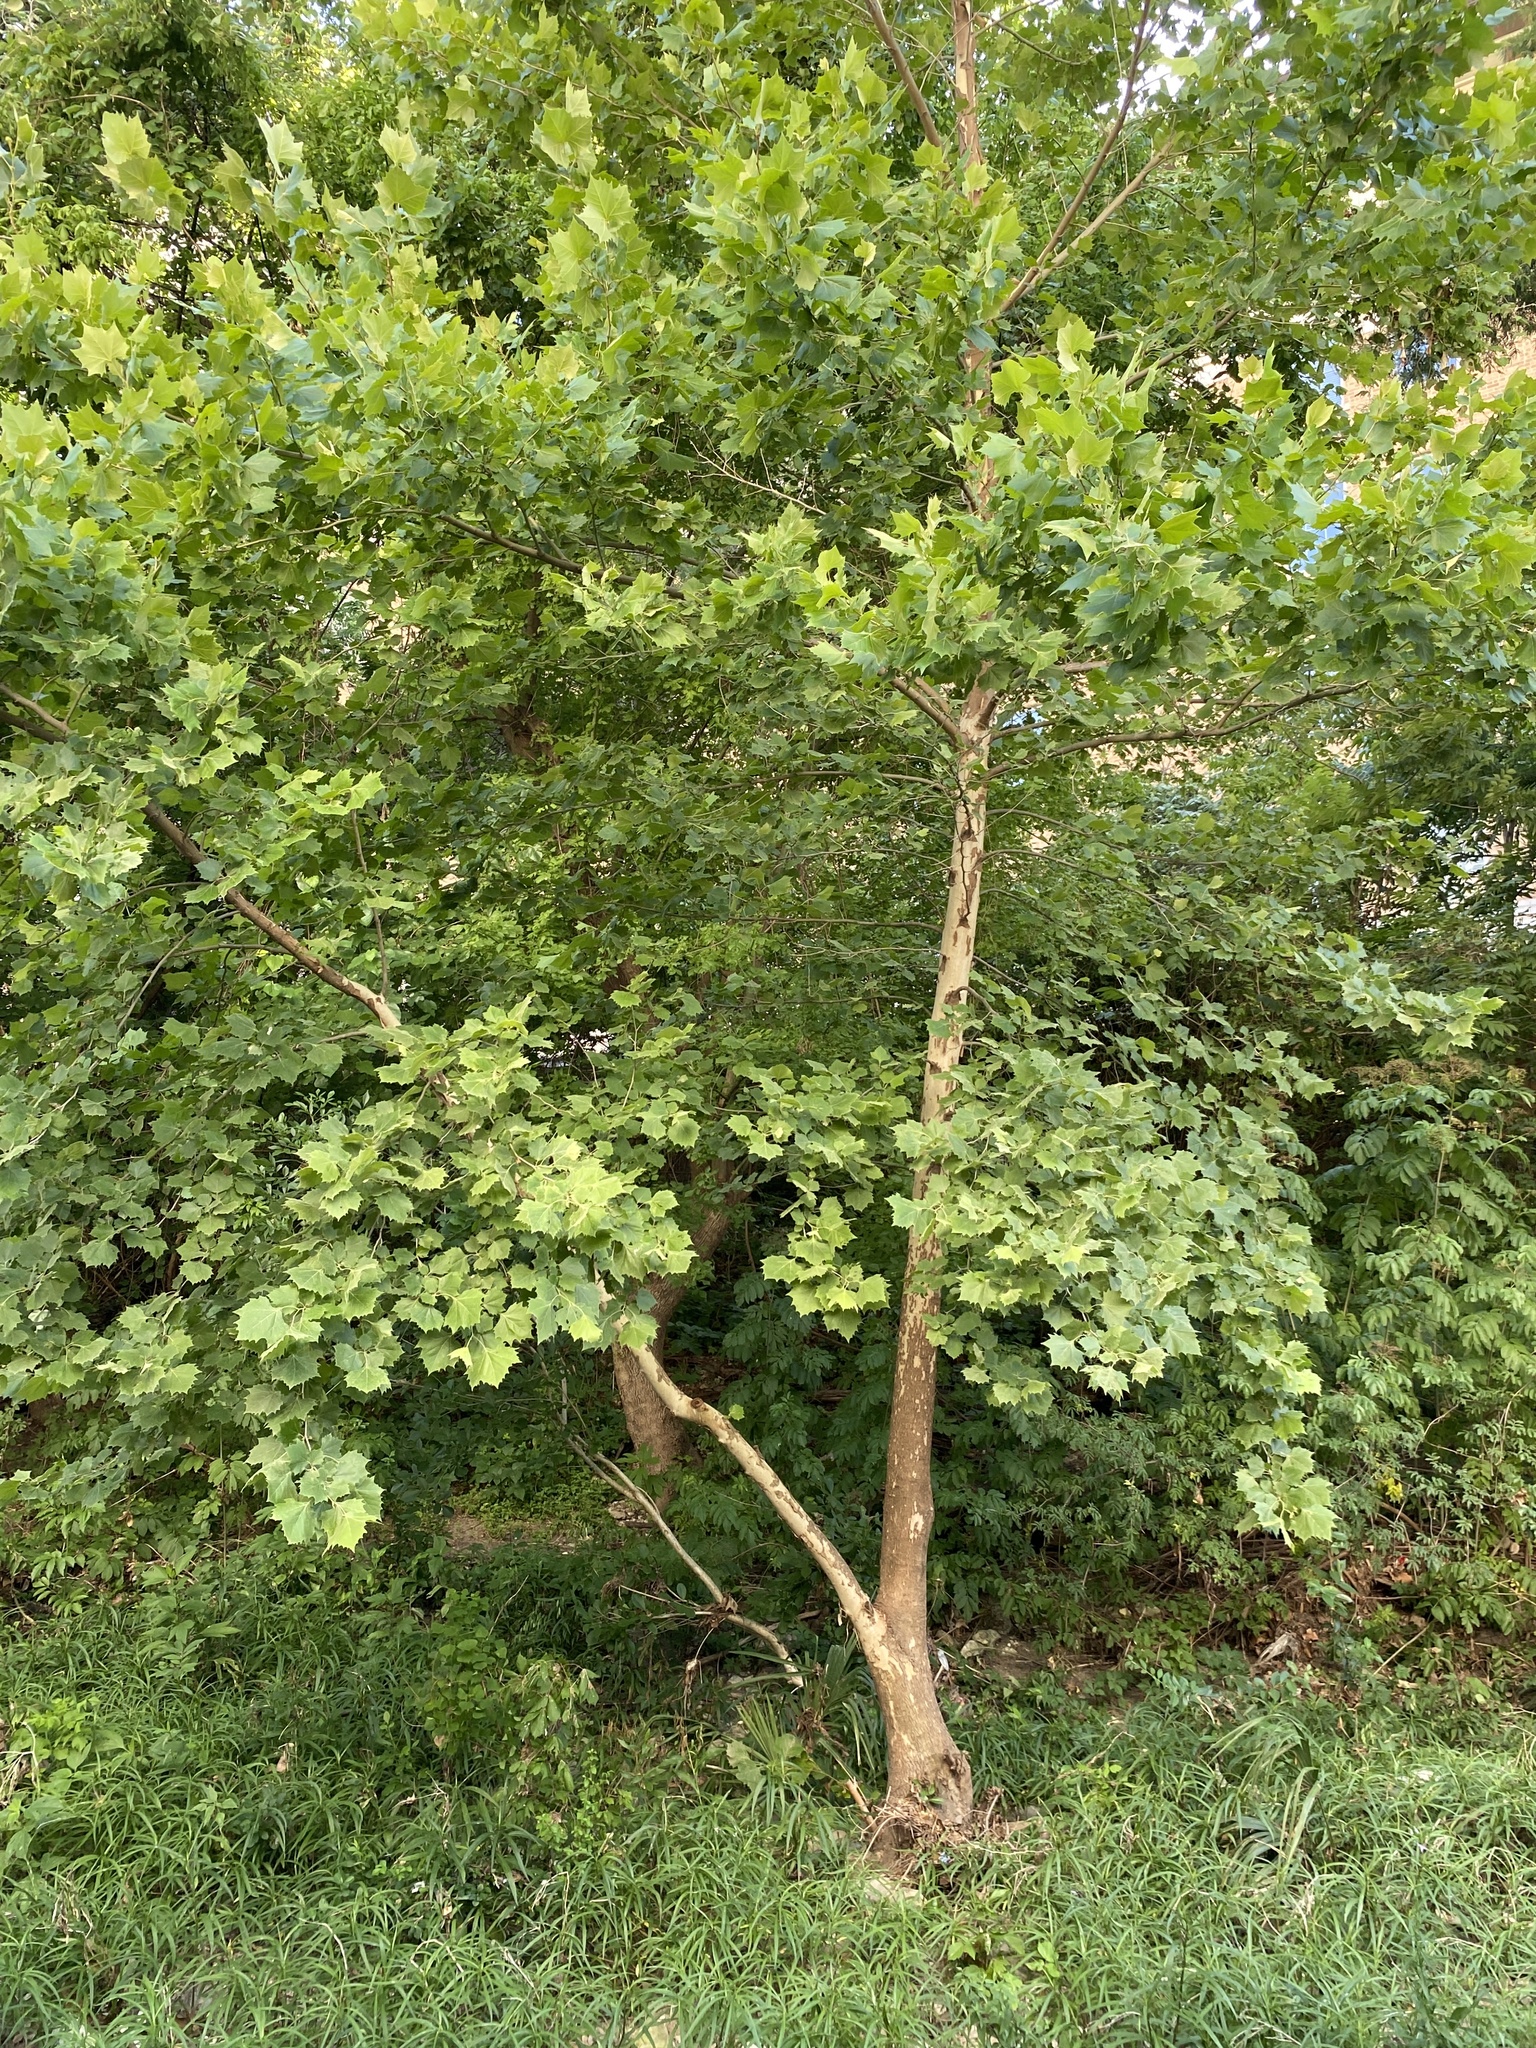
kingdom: Plantae
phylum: Tracheophyta
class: Magnoliopsida
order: Proteales
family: Platanaceae
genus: Platanus
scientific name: Platanus occidentalis
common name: American sycamore
